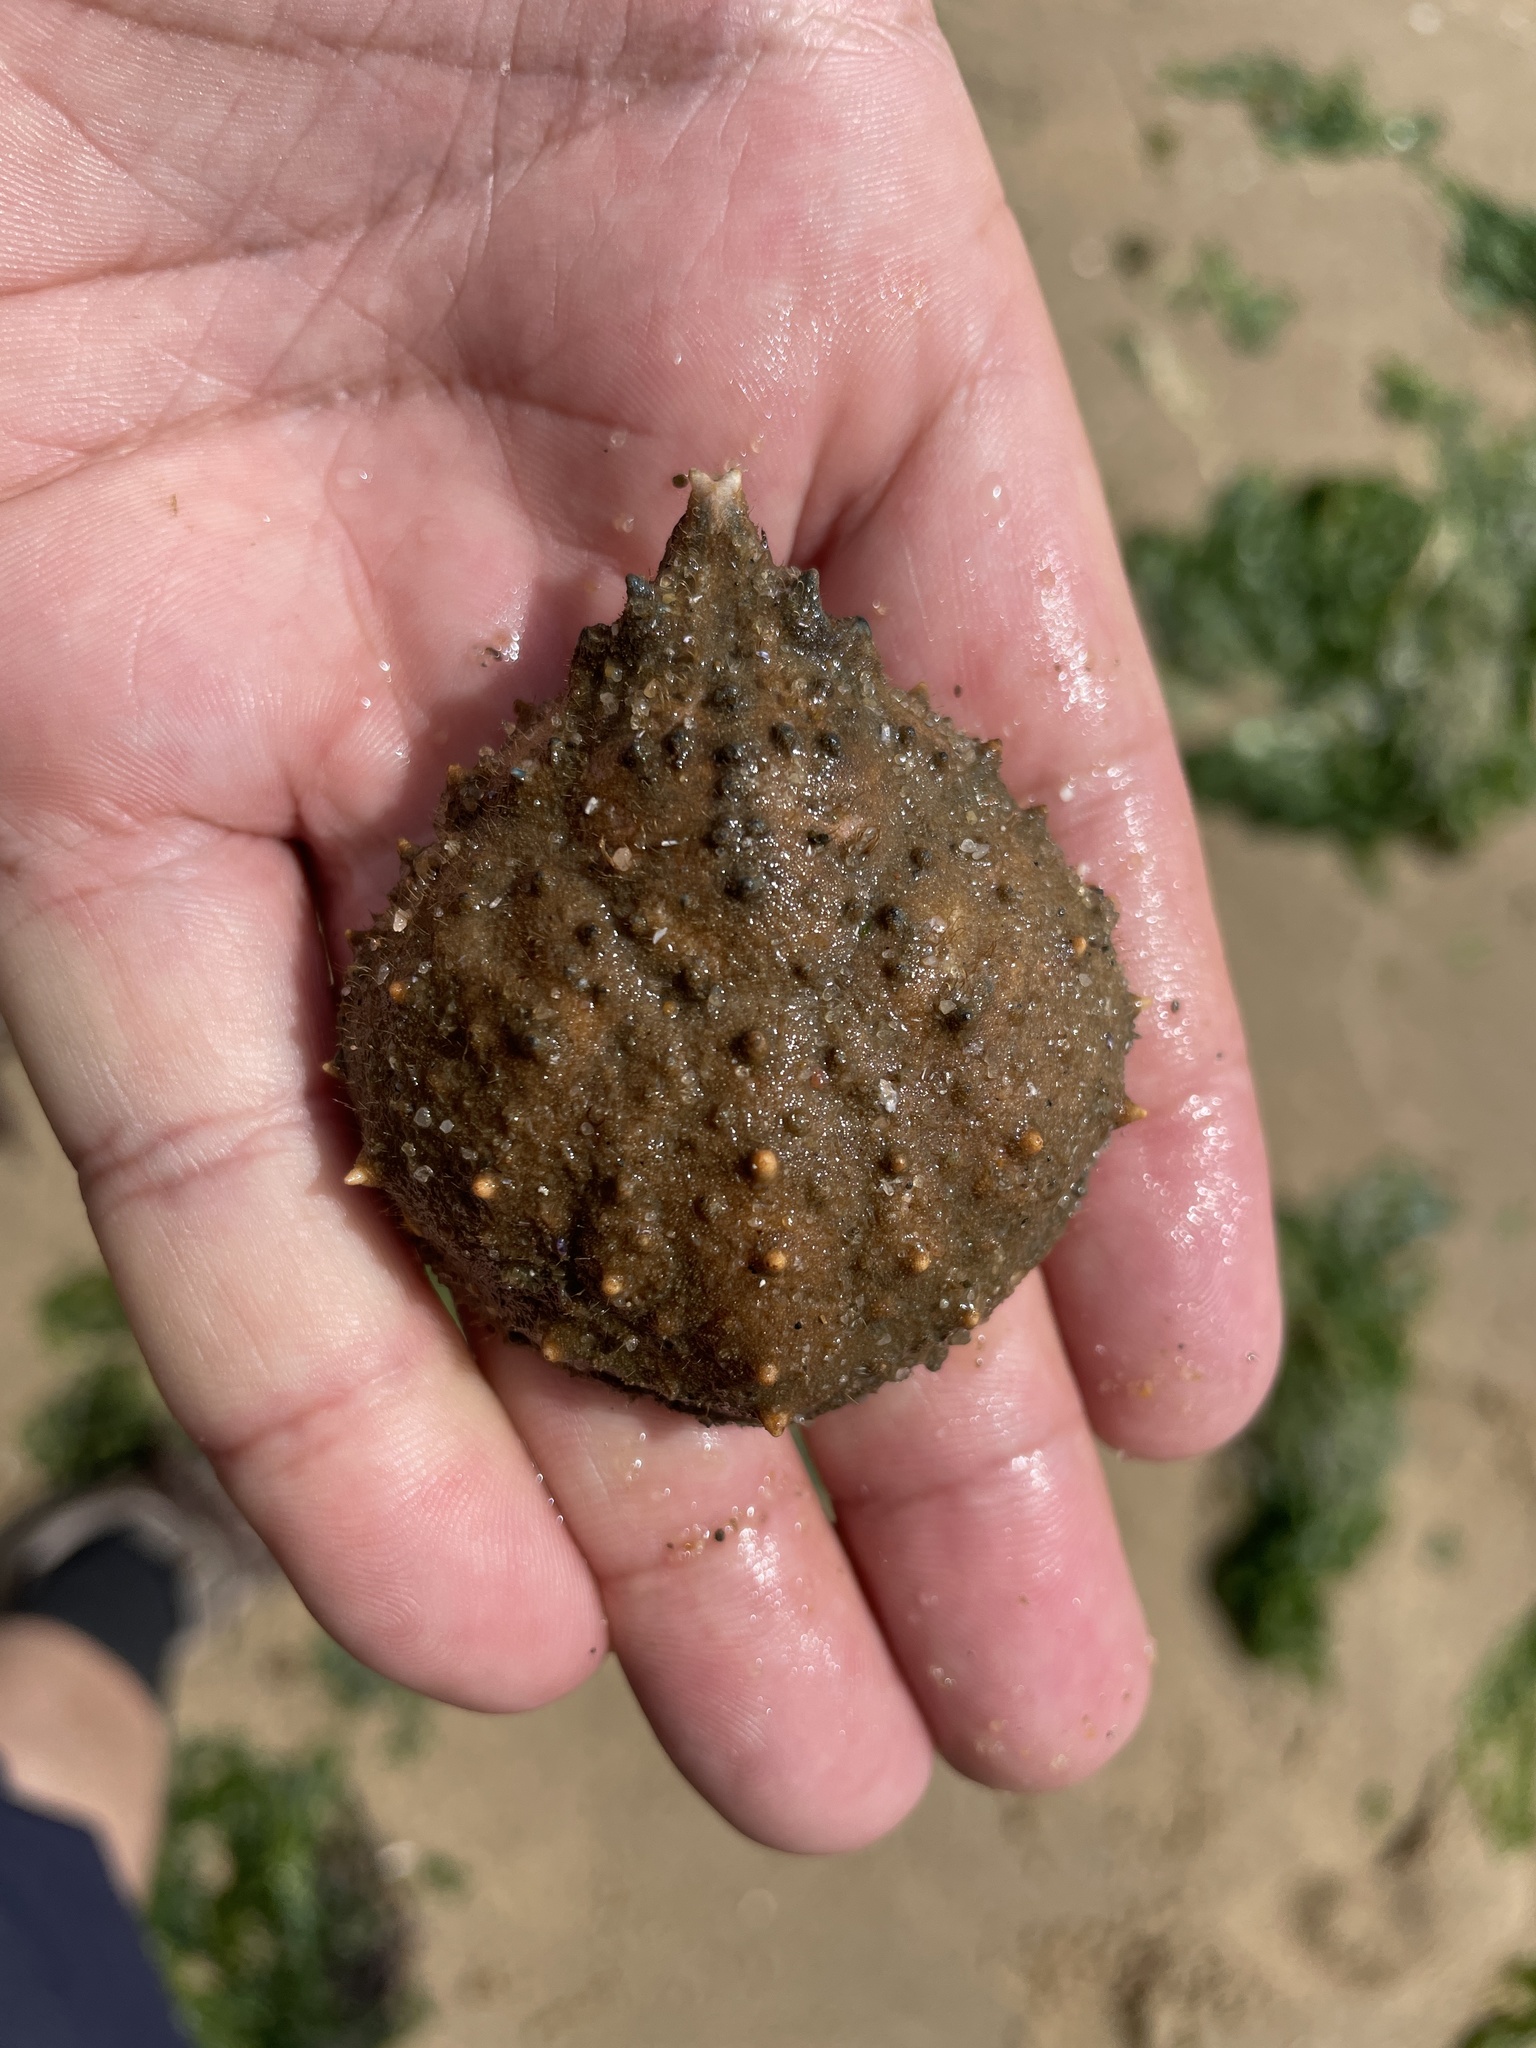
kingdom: Animalia
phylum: Arthropoda
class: Malacostraca
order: Decapoda
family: Epialtidae
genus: Libinia
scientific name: Libinia emarginata
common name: Common spider crab
